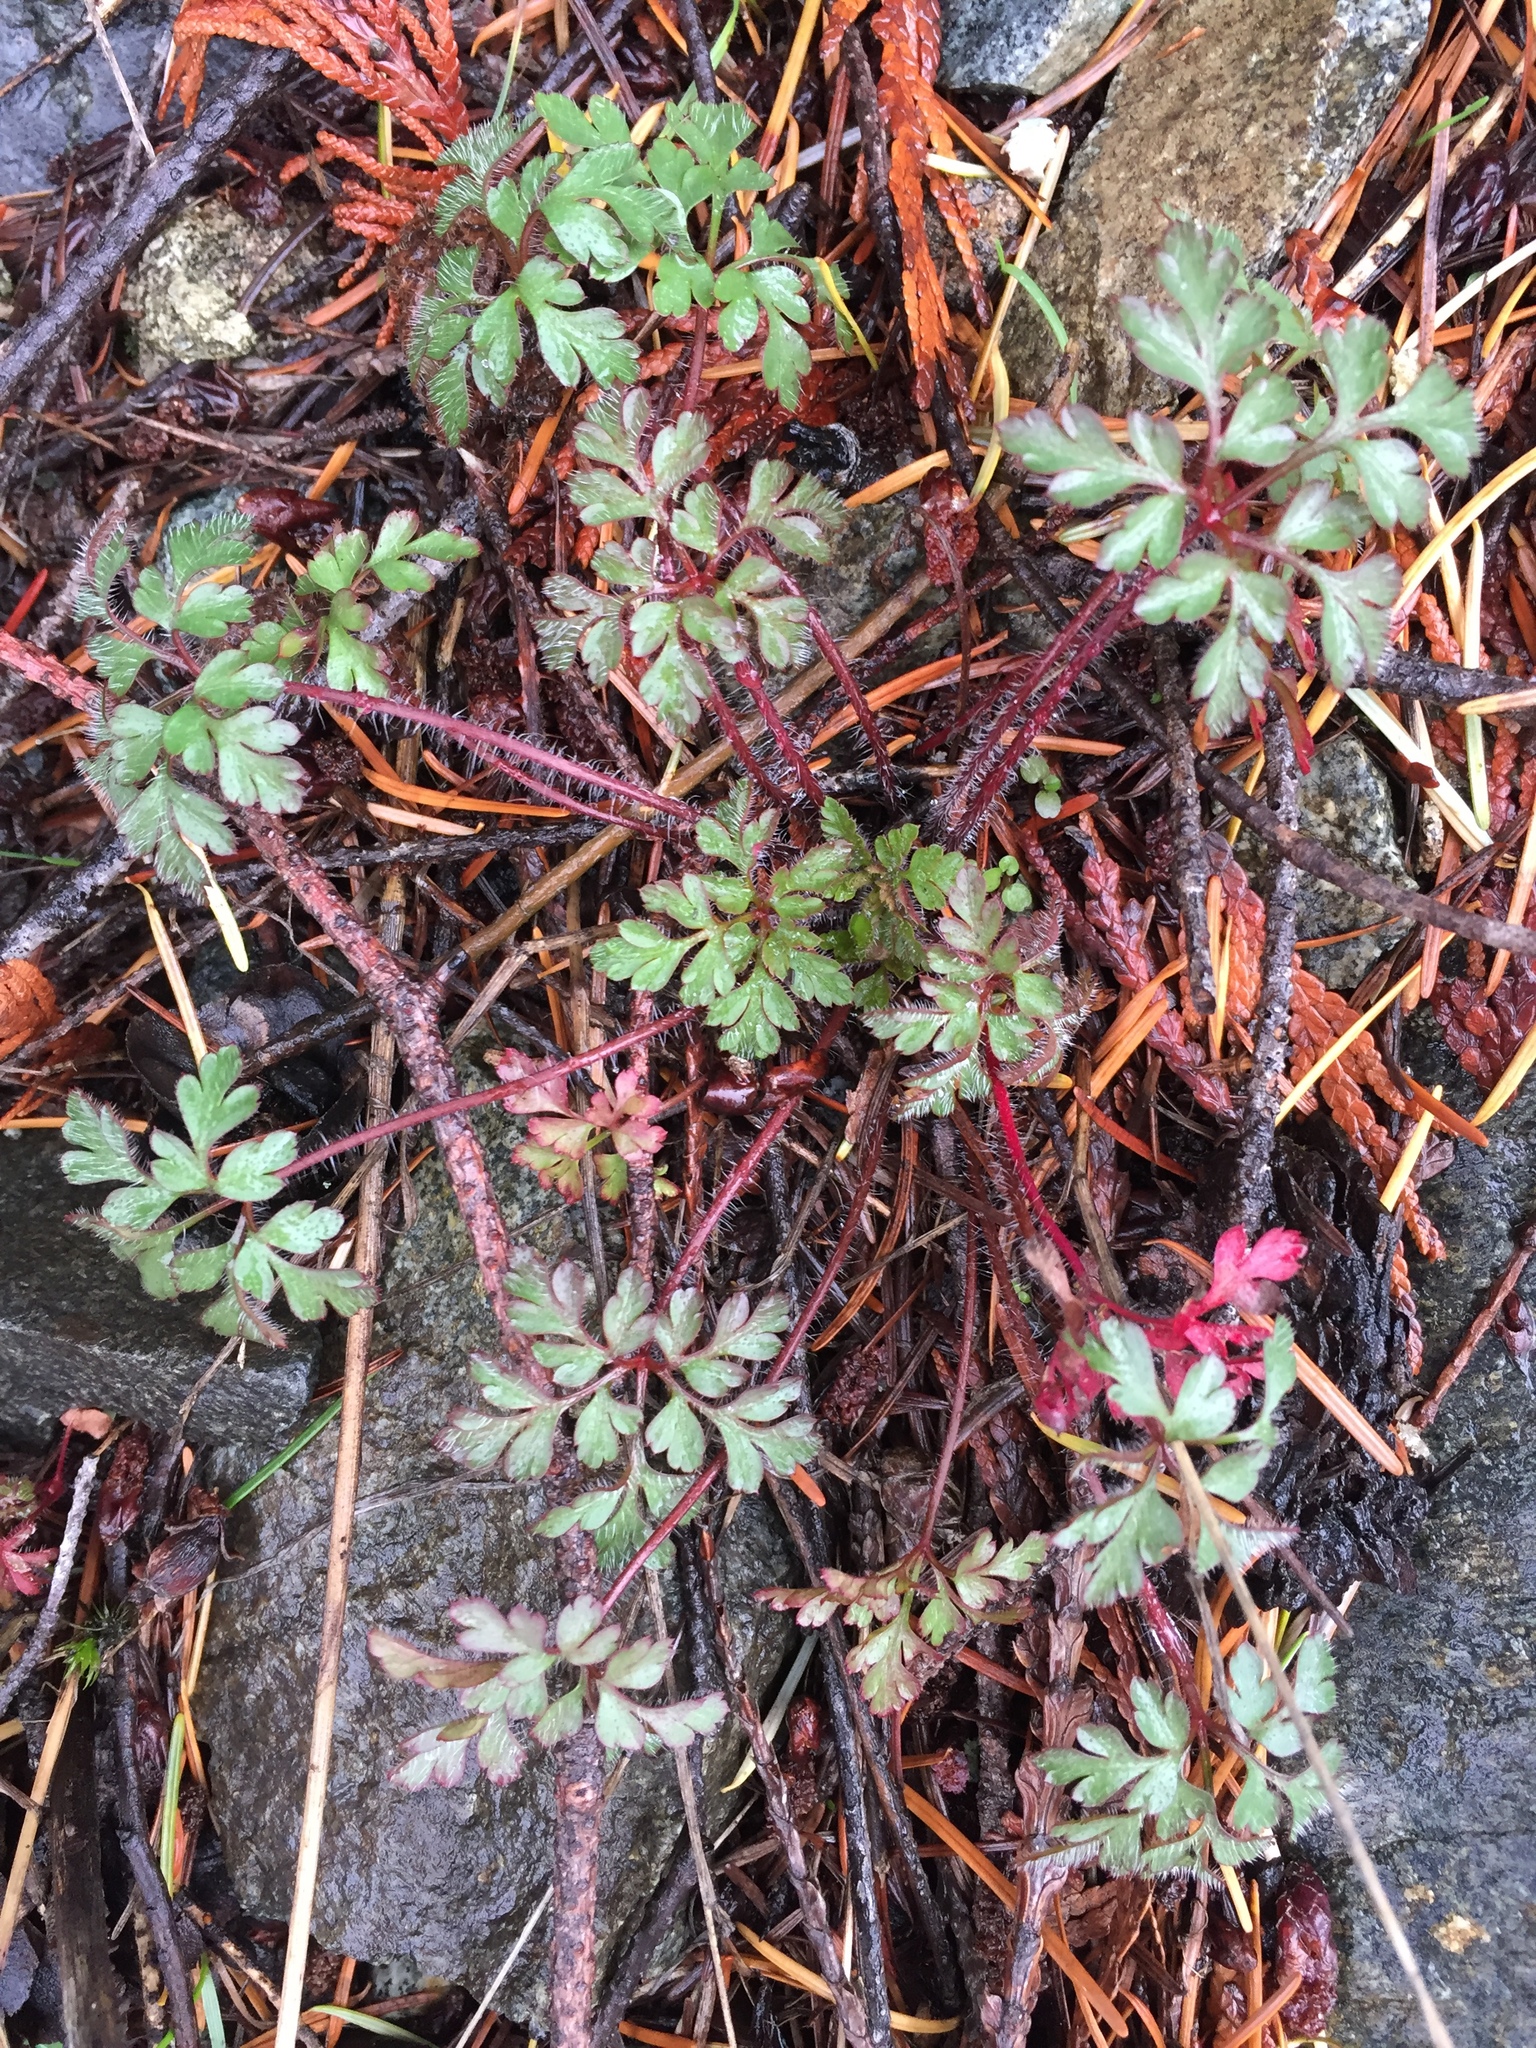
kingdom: Plantae
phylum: Tracheophyta
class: Magnoliopsida
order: Geraniales
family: Geraniaceae
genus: Geranium
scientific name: Geranium robertianum
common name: Herb-robert
